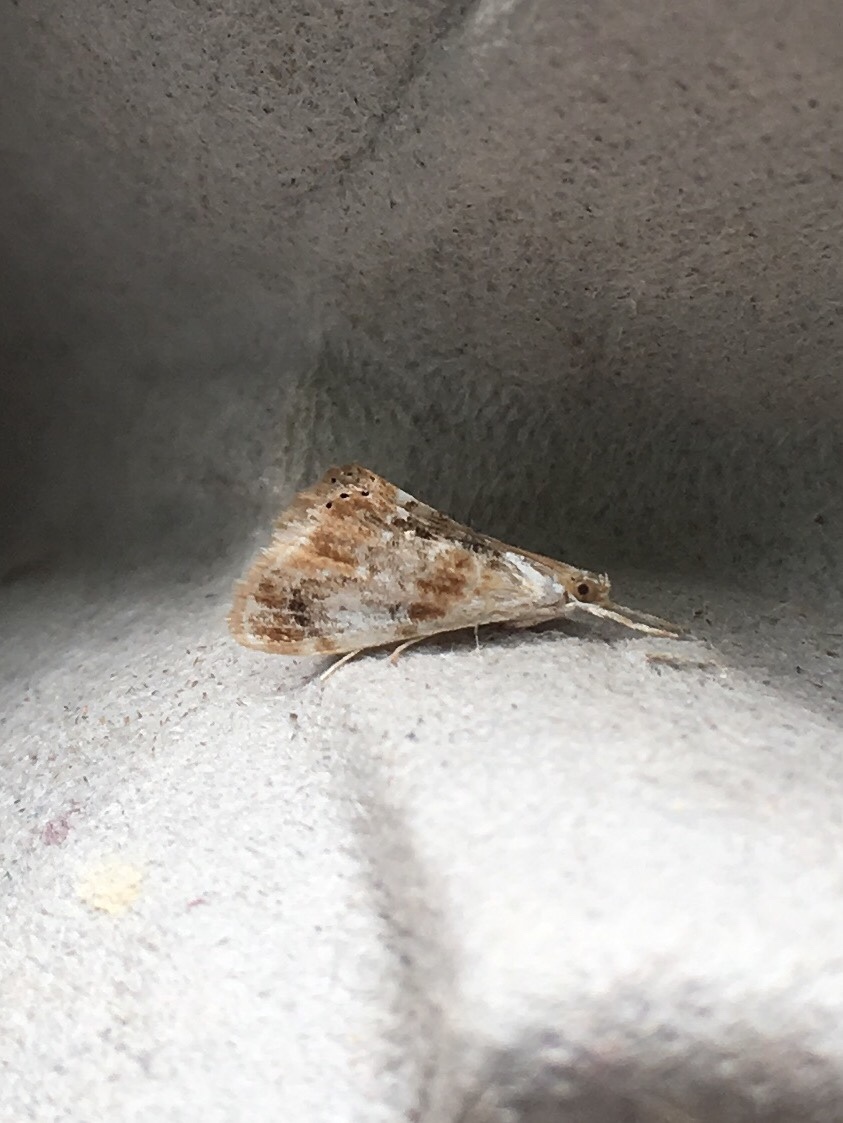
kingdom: Animalia
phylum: Arthropoda
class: Insecta
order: Lepidoptera
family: Crambidae
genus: Dicymolomia
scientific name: Dicymolomia julianalis
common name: Julia's dicymolomia moth
